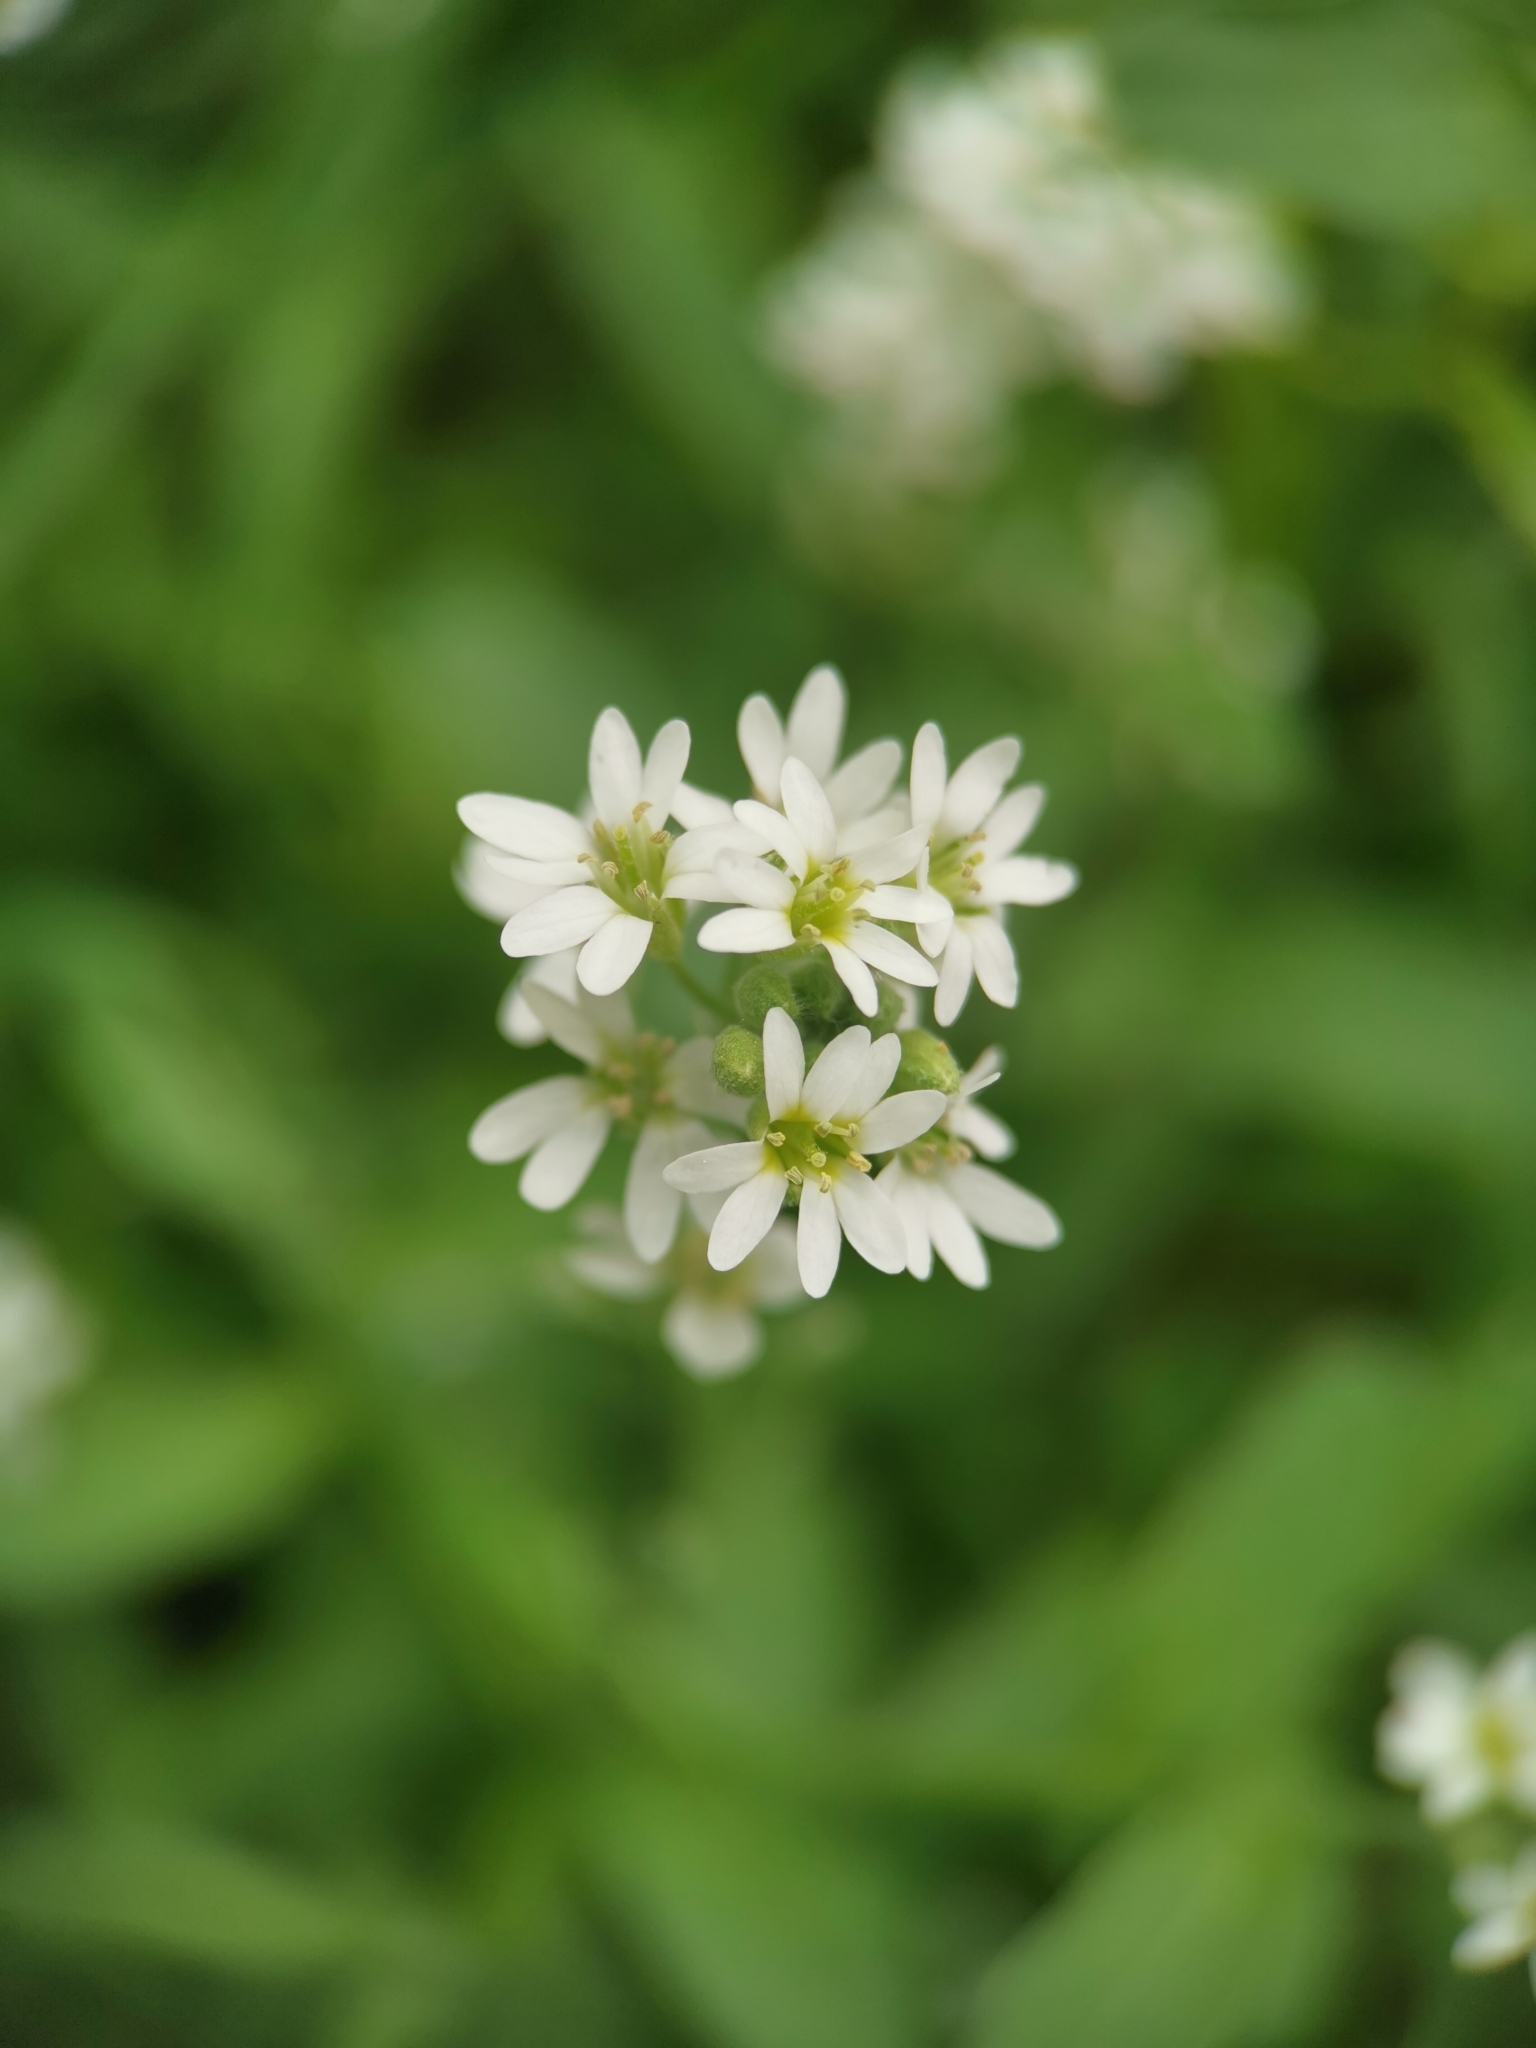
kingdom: Plantae
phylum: Tracheophyta
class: Magnoliopsida
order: Brassicales
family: Brassicaceae
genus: Berteroa
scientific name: Berteroa incana
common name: Hoary alison
